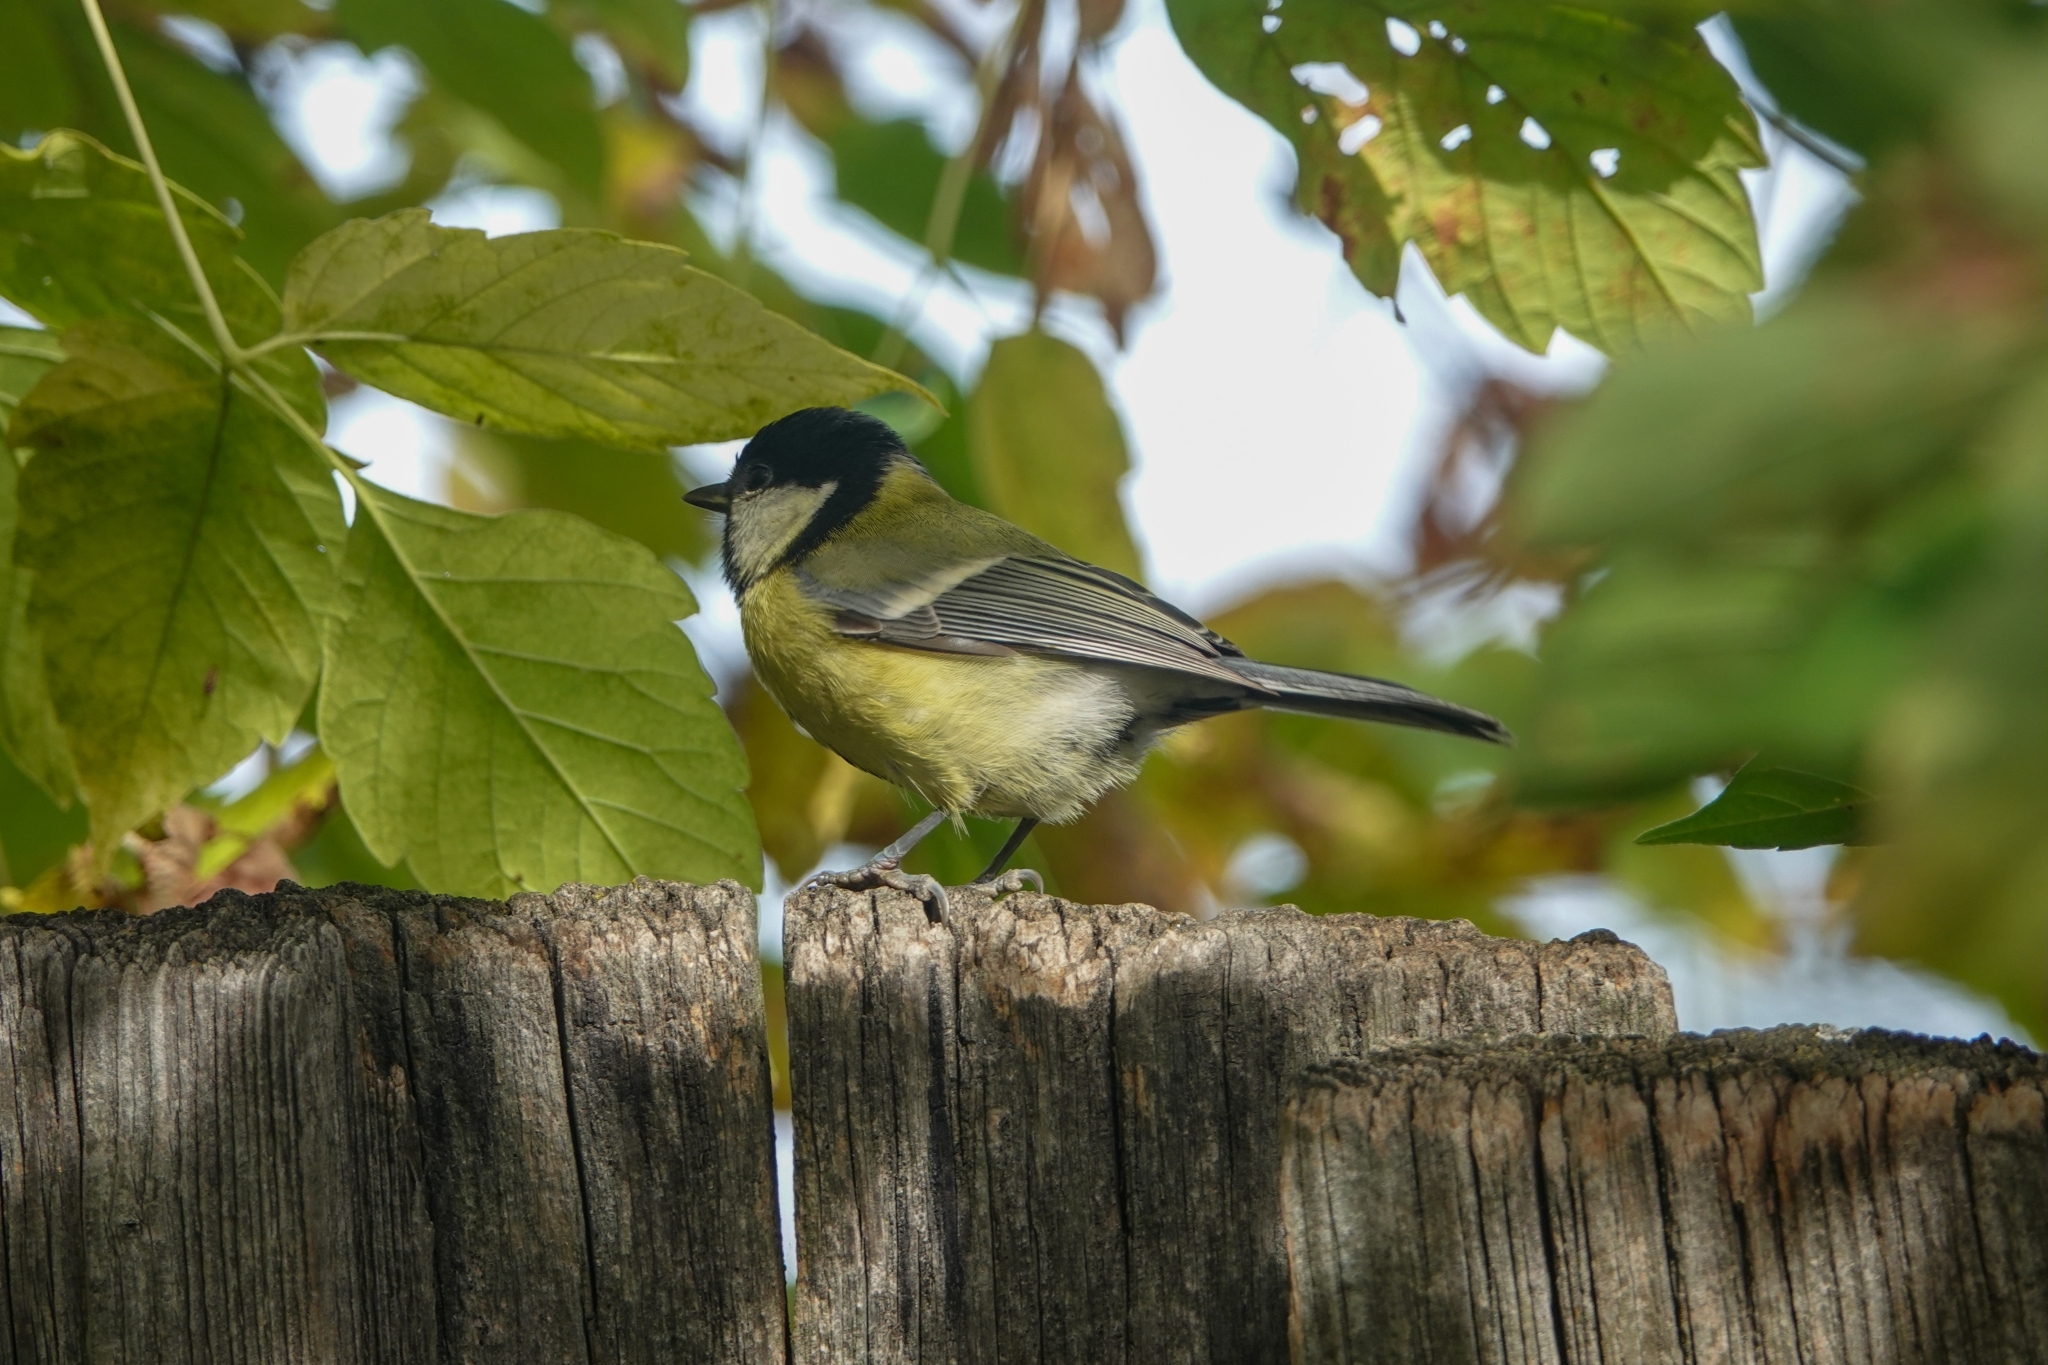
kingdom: Animalia
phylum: Chordata
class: Aves
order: Passeriformes
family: Paridae
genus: Parus
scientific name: Parus major
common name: Great tit
